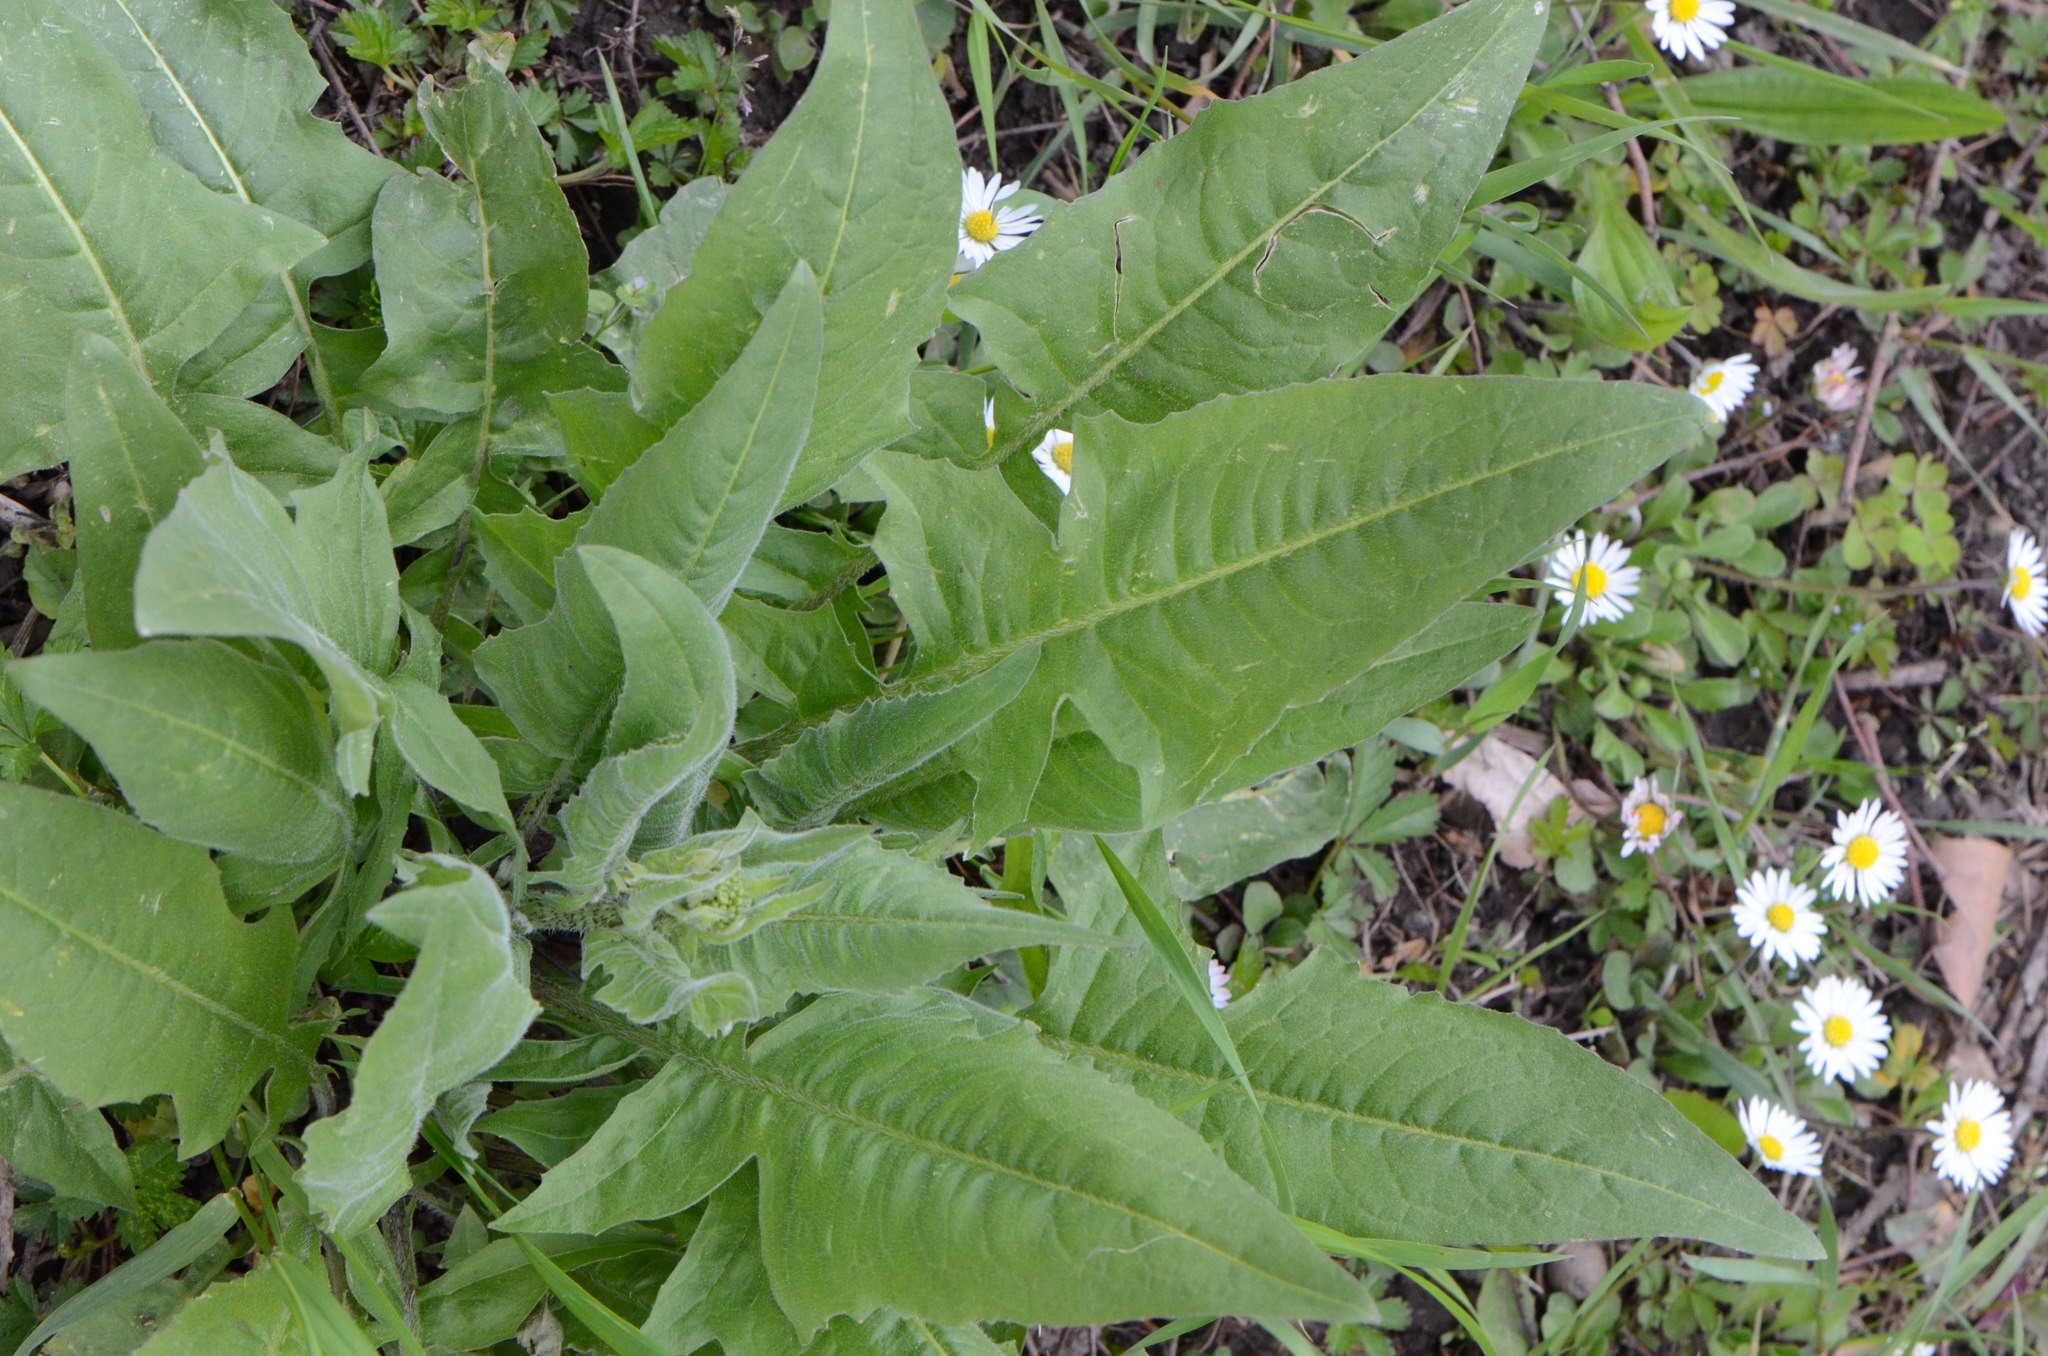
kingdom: Plantae
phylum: Tracheophyta
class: Magnoliopsida
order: Brassicales
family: Brassicaceae
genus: Bunias
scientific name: Bunias orientalis
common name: Warty-cabbage
